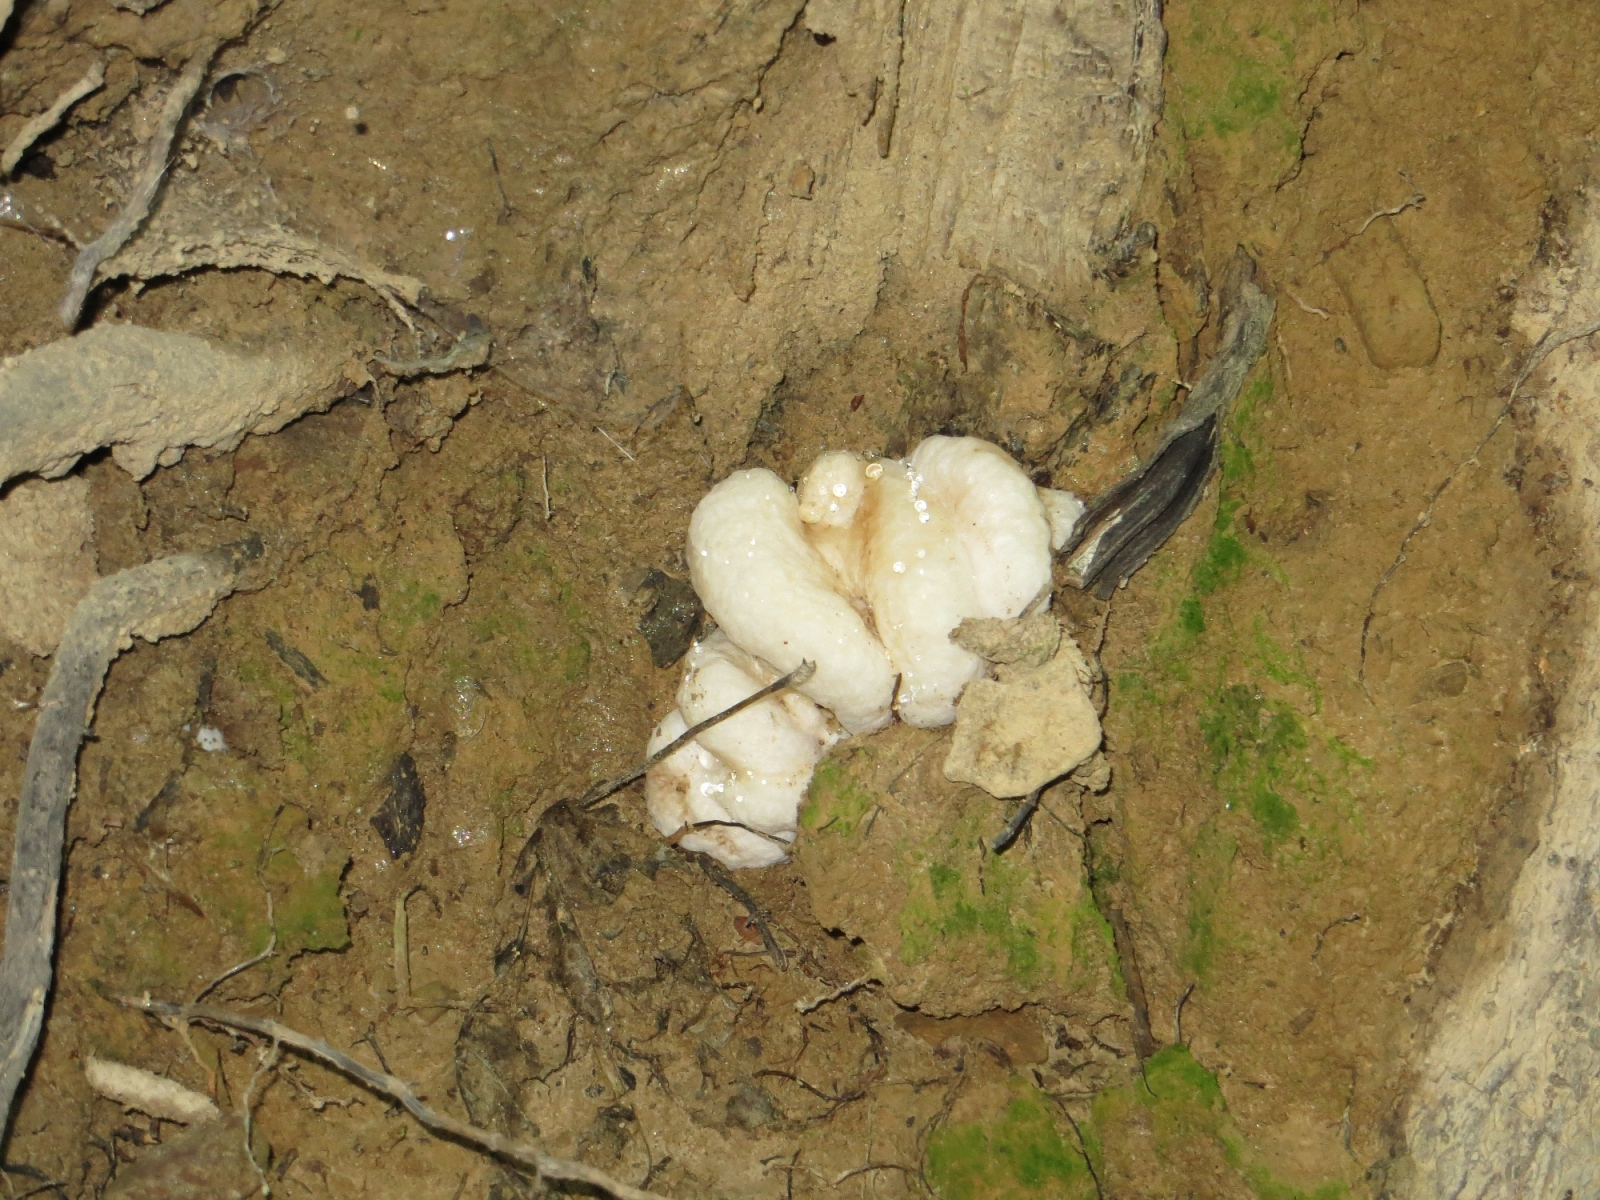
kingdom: Fungi
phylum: Basidiomycota
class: Agaricomycetes
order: Agaricales
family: Entolomataceae
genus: Entoloma
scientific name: Entoloma abortivum
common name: Aborted entoloma
